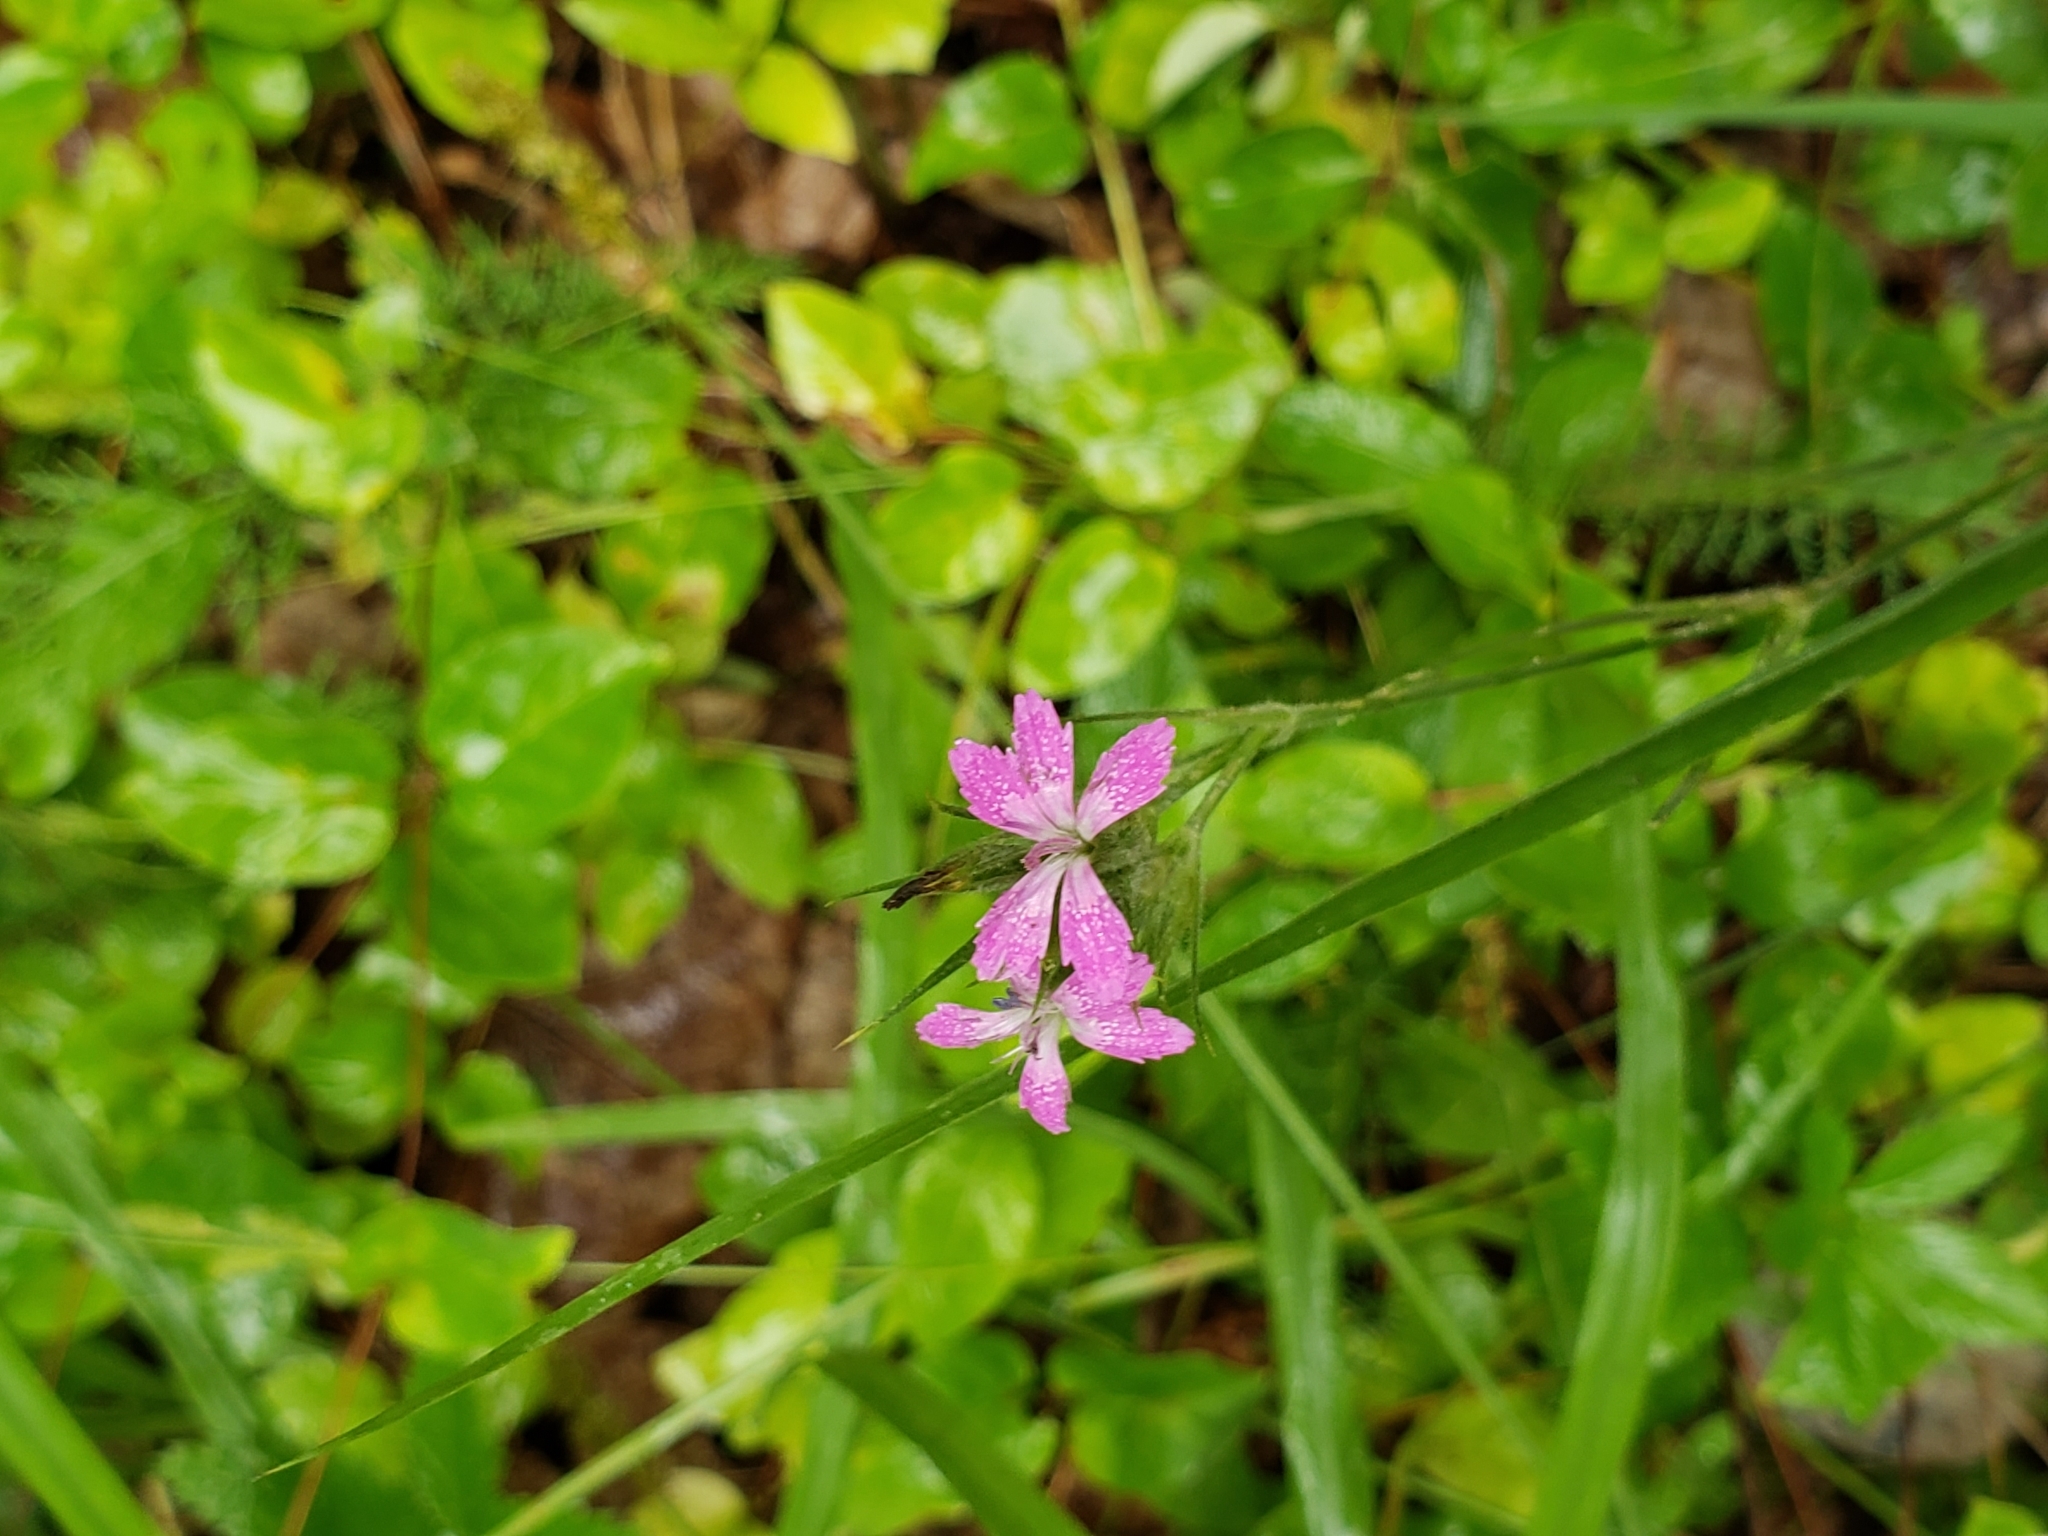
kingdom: Plantae
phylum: Tracheophyta
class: Magnoliopsida
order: Caryophyllales
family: Caryophyllaceae
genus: Dianthus
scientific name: Dianthus armeria
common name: Deptford pink
